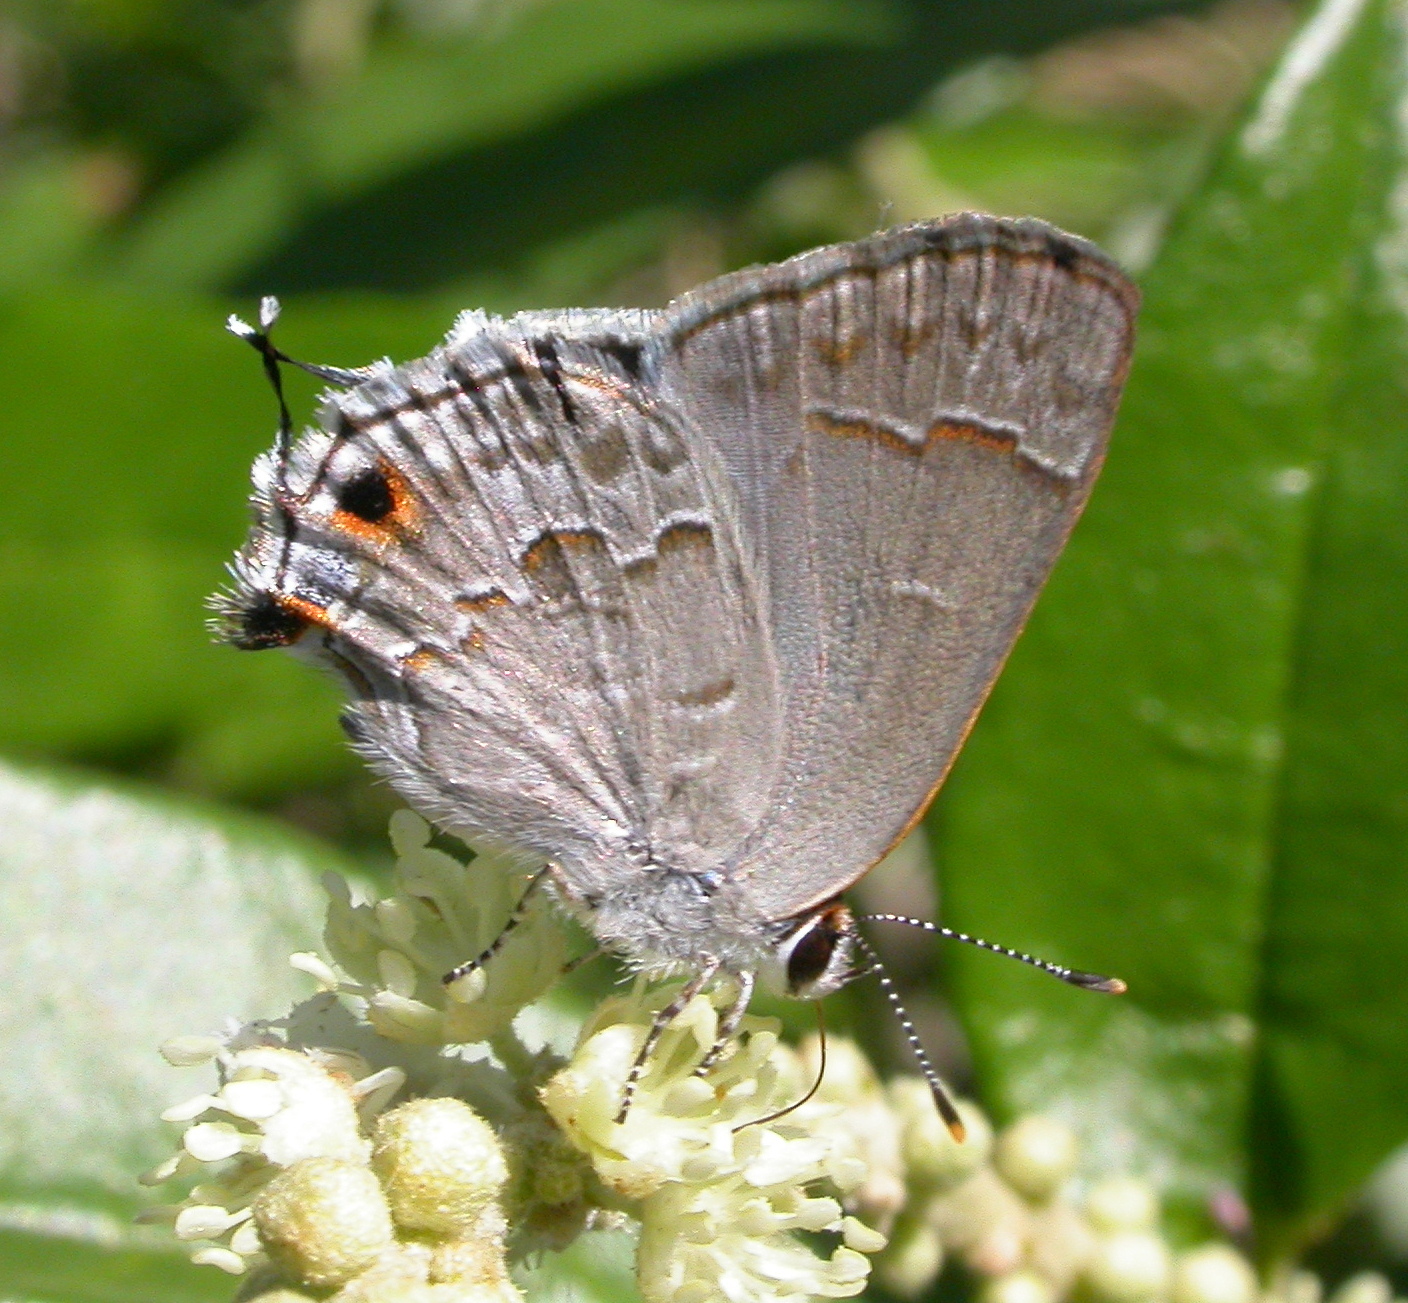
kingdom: Animalia
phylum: Arthropoda
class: Insecta
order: Lepidoptera
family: Lycaenidae
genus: Strymon
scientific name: Strymon alea
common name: Lacey's scrub-hairstreak
